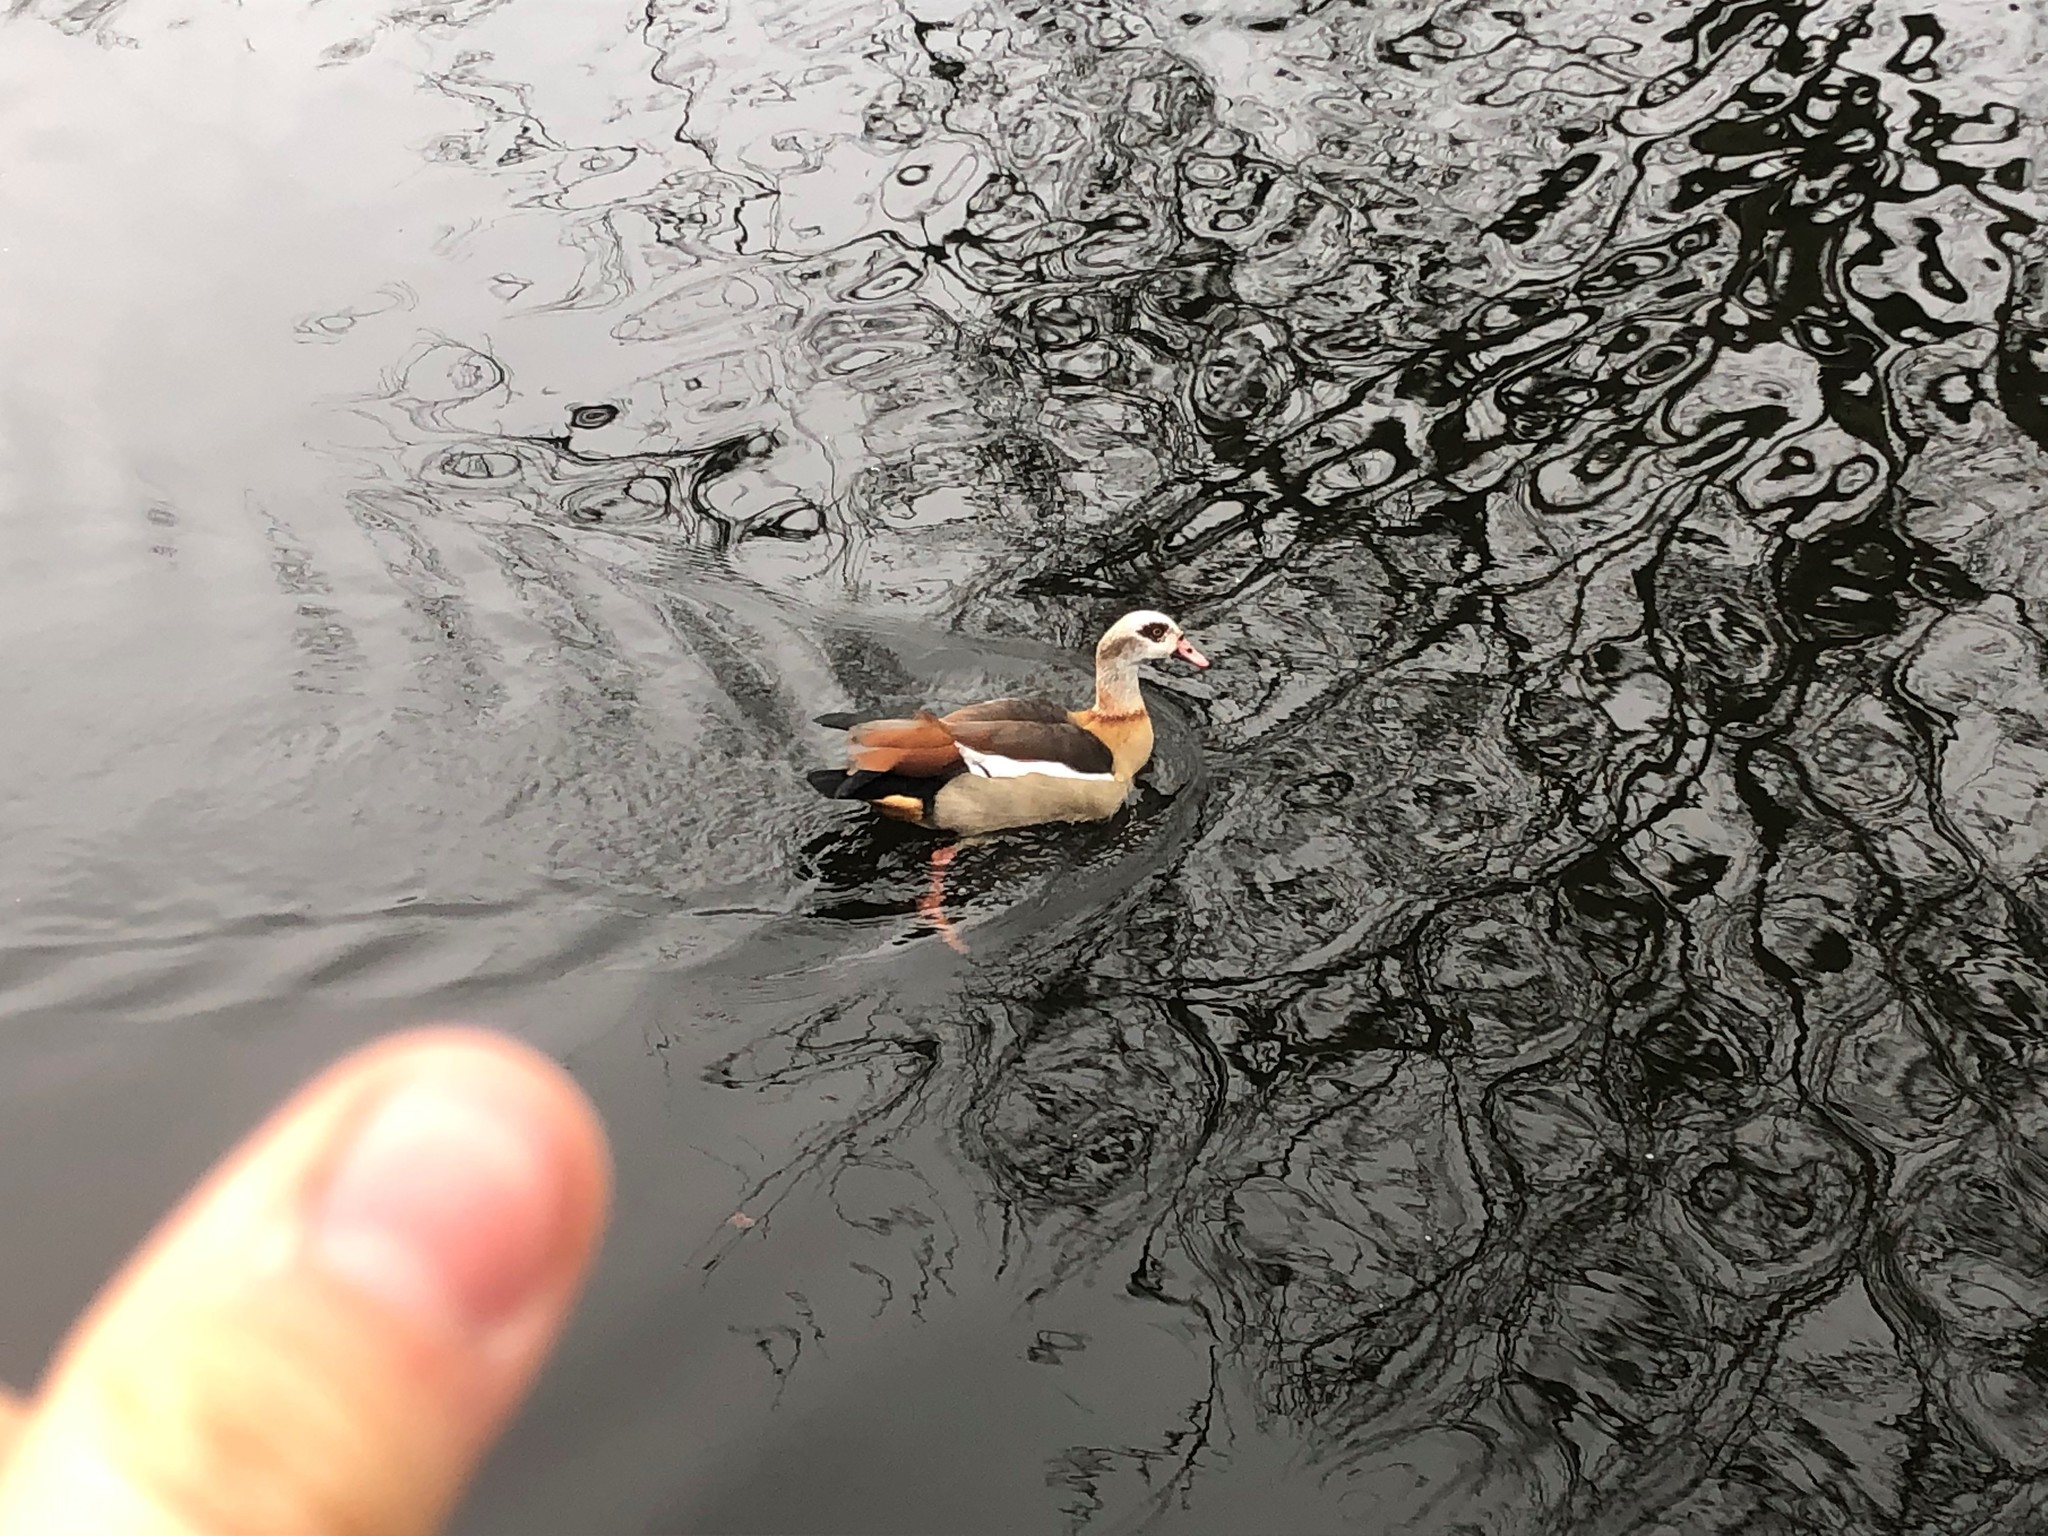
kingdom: Animalia
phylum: Chordata
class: Aves
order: Anseriformes
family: Anatidae
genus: Alopochen
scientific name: Alopochen aegyptiaca
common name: Egyptian goose
